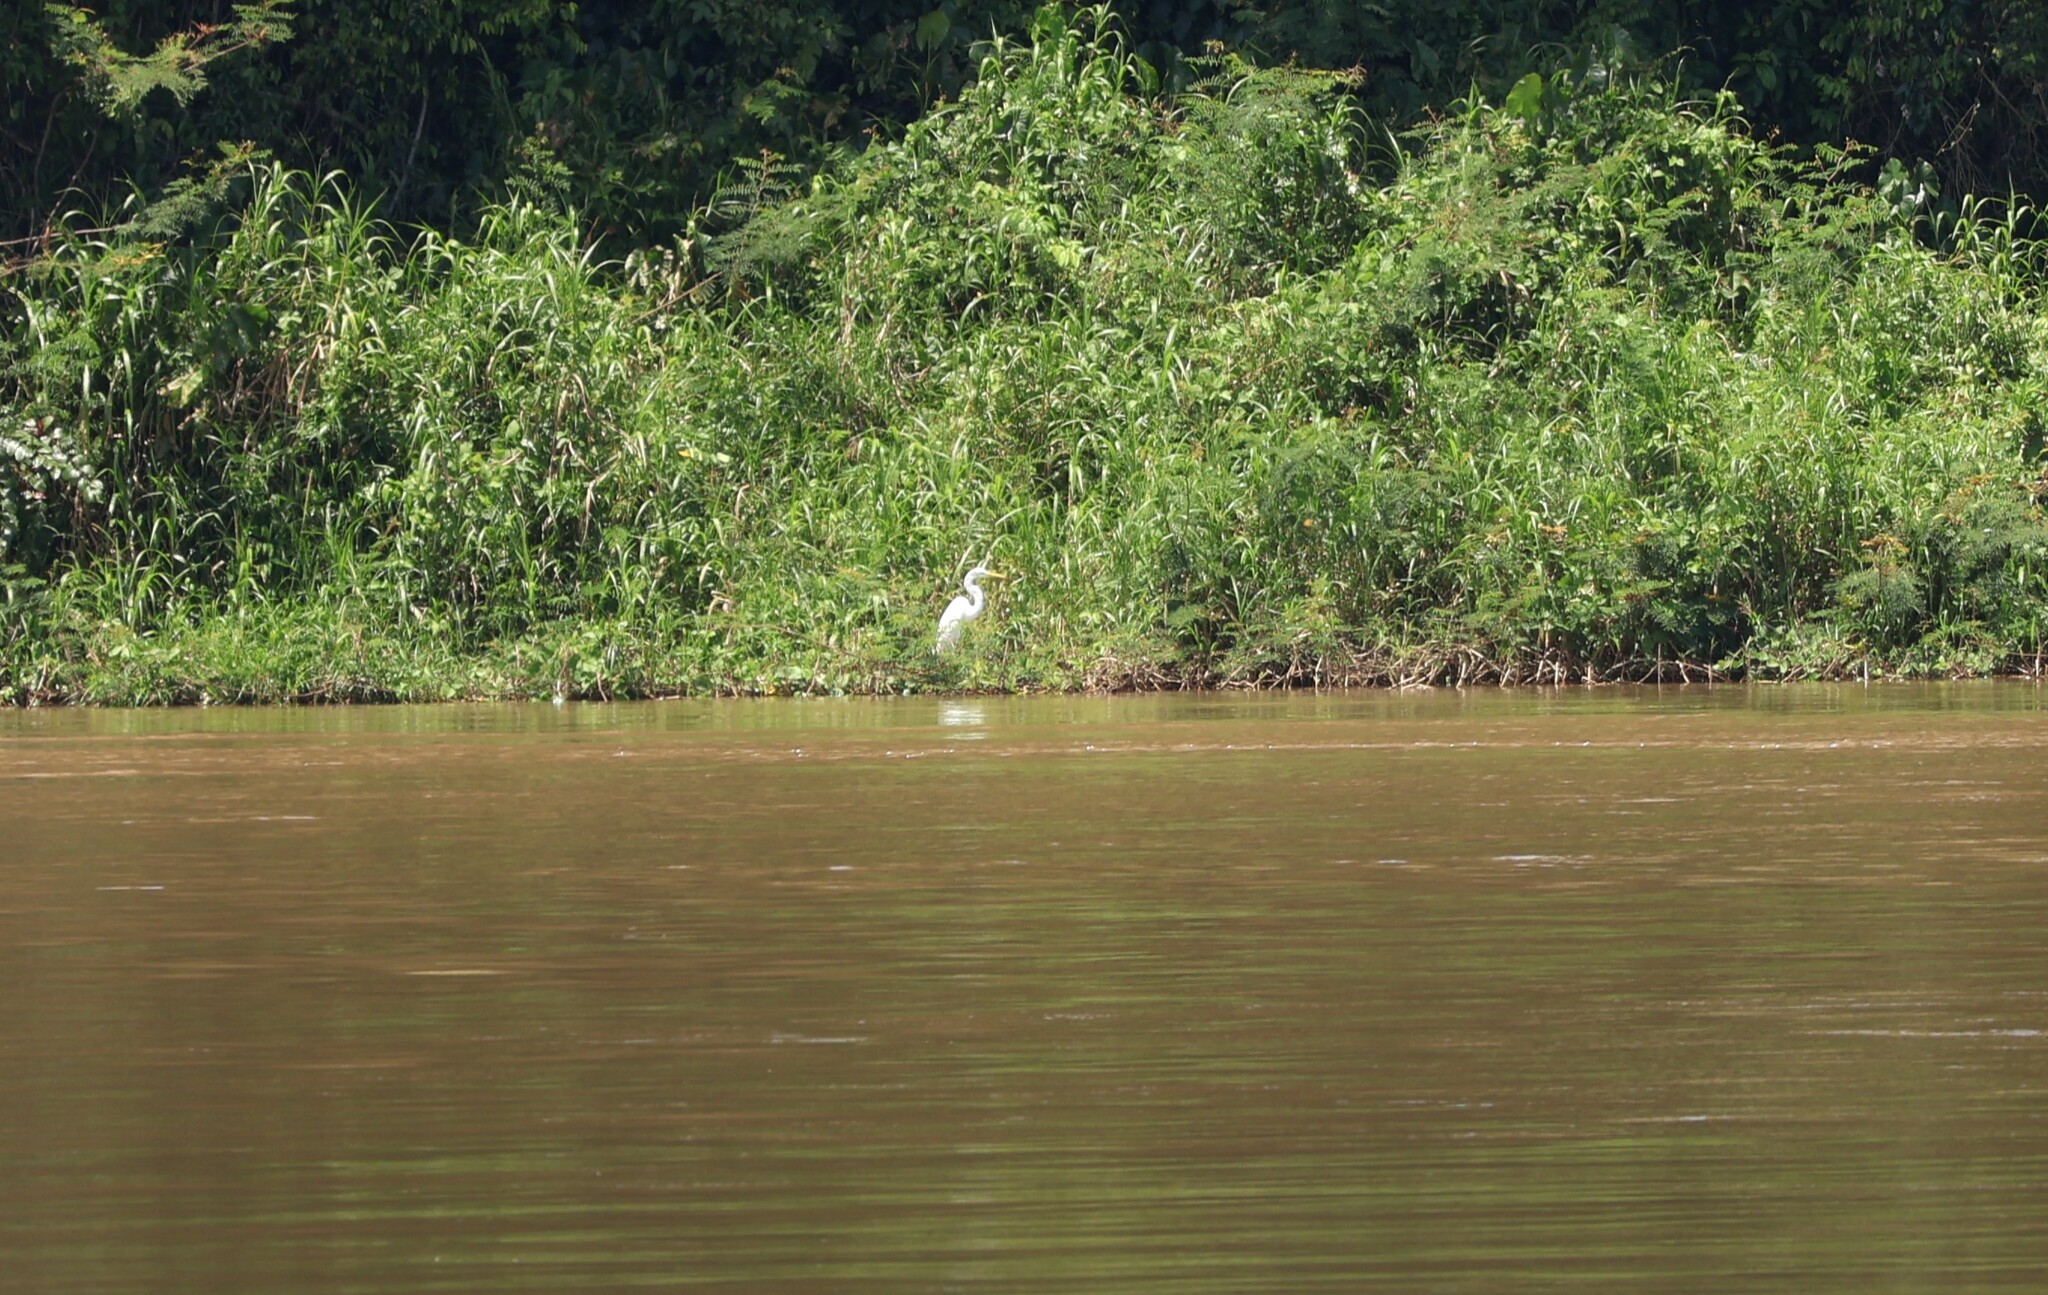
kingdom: Animalia
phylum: Chordata
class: Aves
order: Pelecaniformes
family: Ardeidae
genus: Ardea
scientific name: Ardea alba
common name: Great egret
